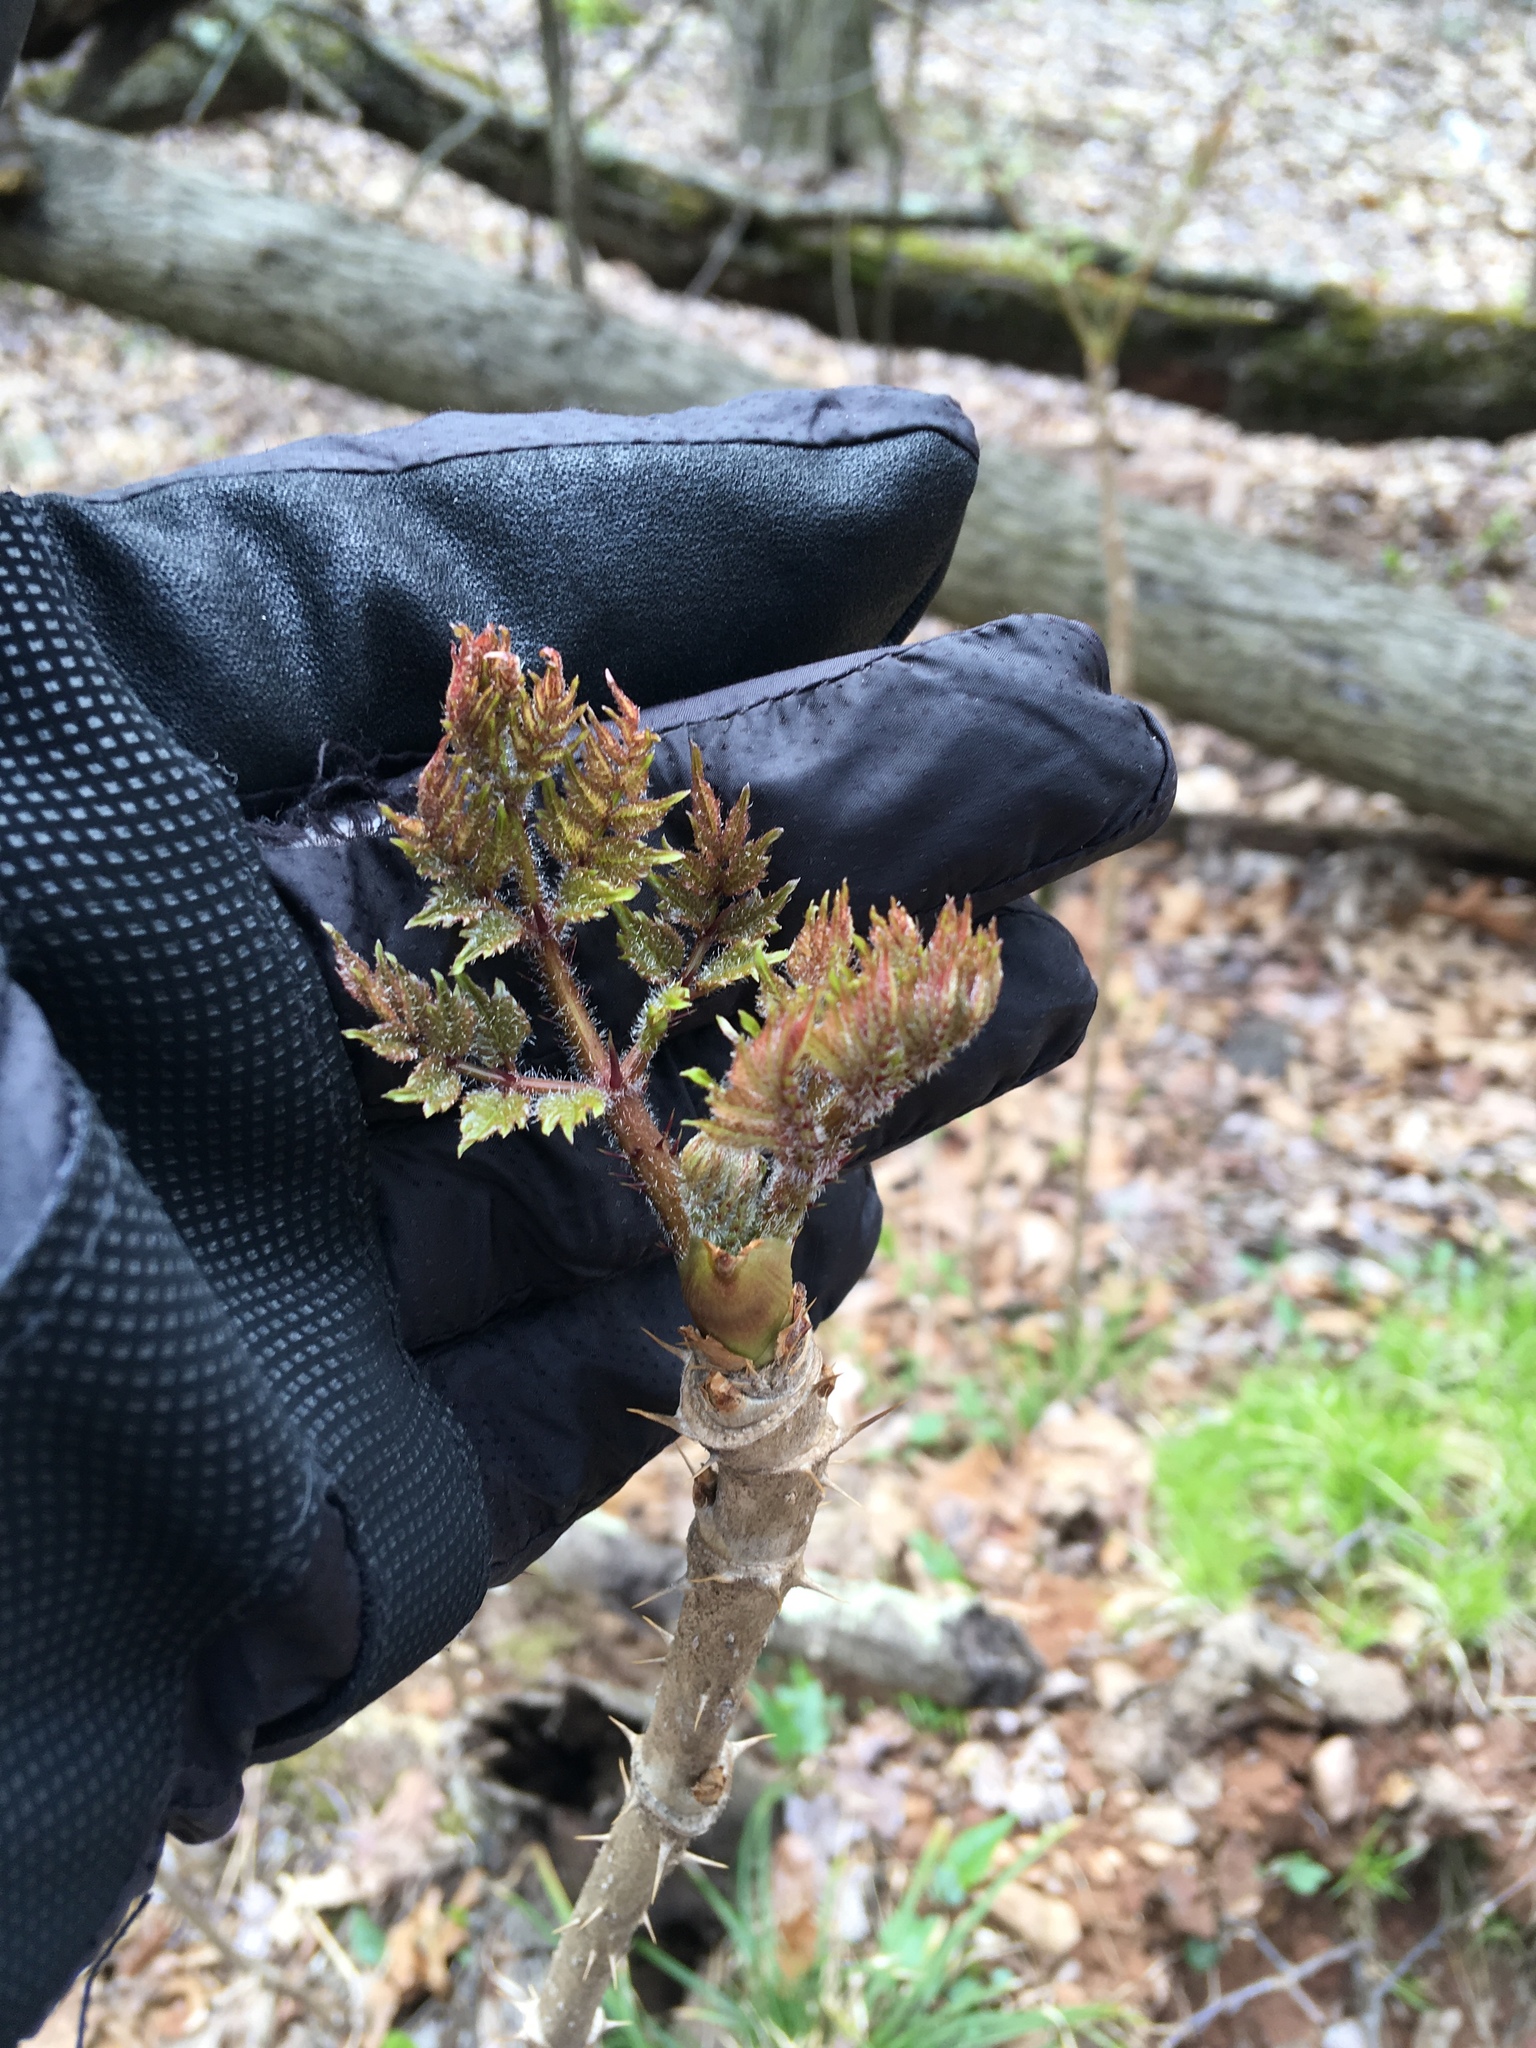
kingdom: Plantae
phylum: Tracheophyta
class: Magnoliopsida
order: Apiales
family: Araliaceae
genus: Aralia
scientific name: Aralia elata
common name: Japanese angelica-tree
